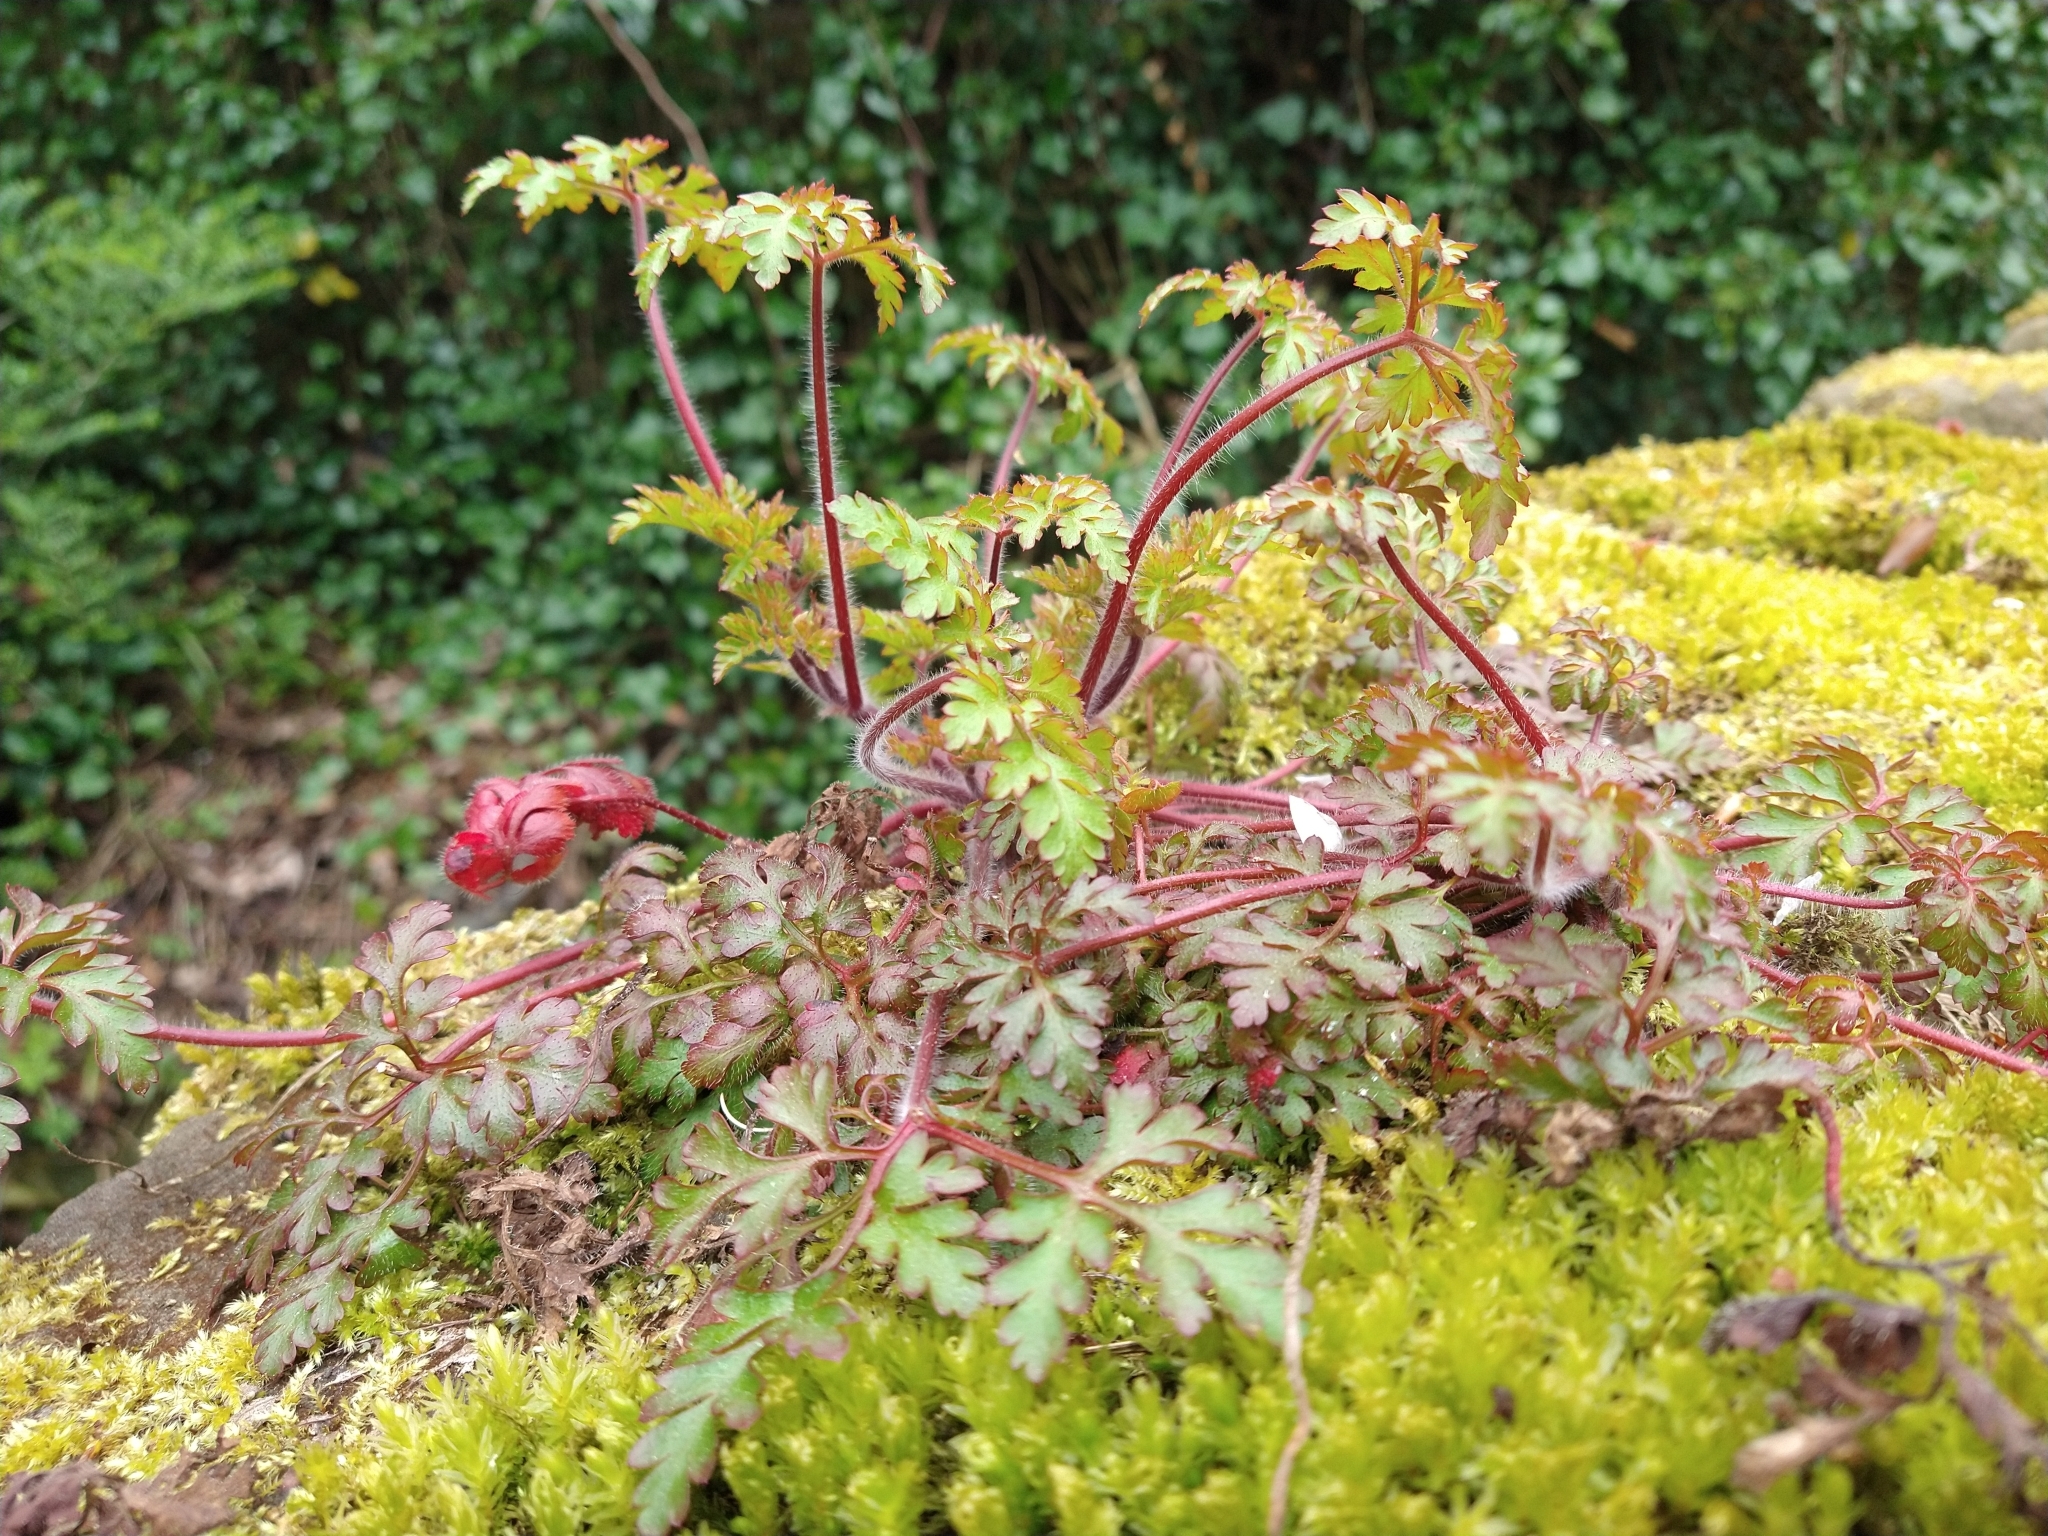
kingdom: Plantae
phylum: Tracheophyta
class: Magnoliopsida
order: Geraniales
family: Geraniaceae
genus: Geranium
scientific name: Geranium robertianum
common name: Herb-robert
